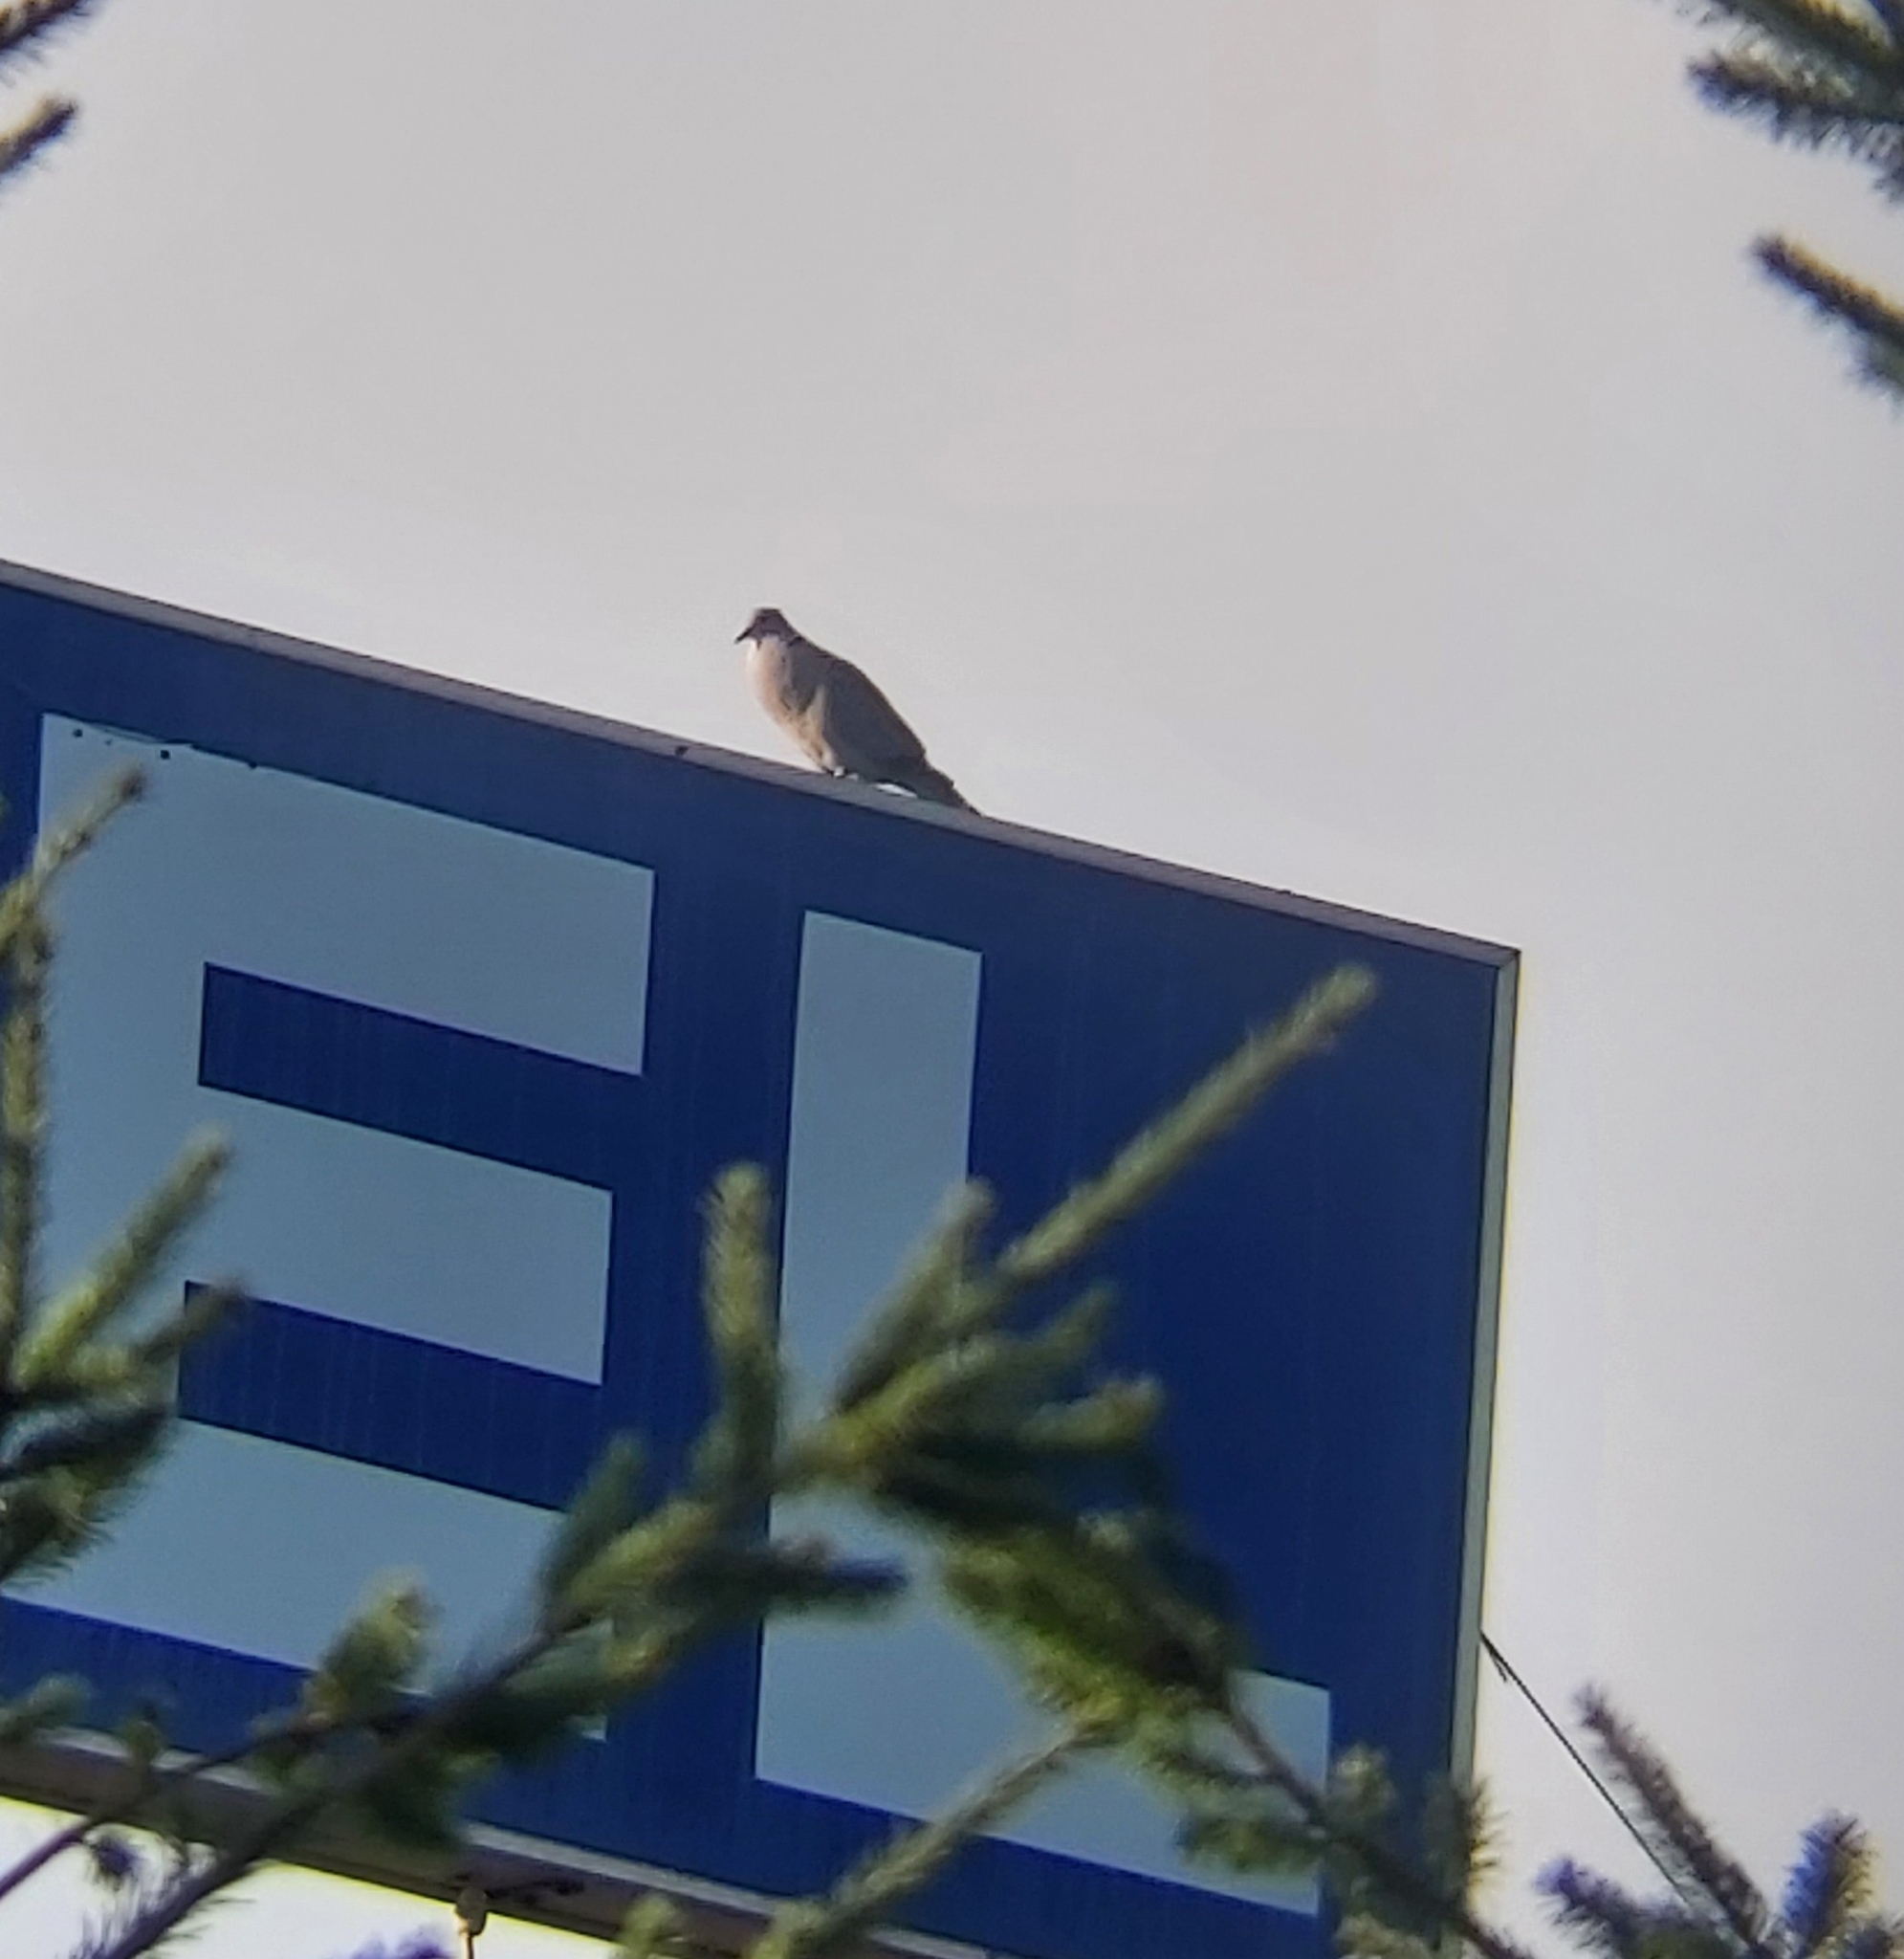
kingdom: Animalia
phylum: Chordata
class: Aves
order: Columbiformes
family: Columbidae
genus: Streptopelia
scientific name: Streptopelia decaocto
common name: Eurasian collared dove
